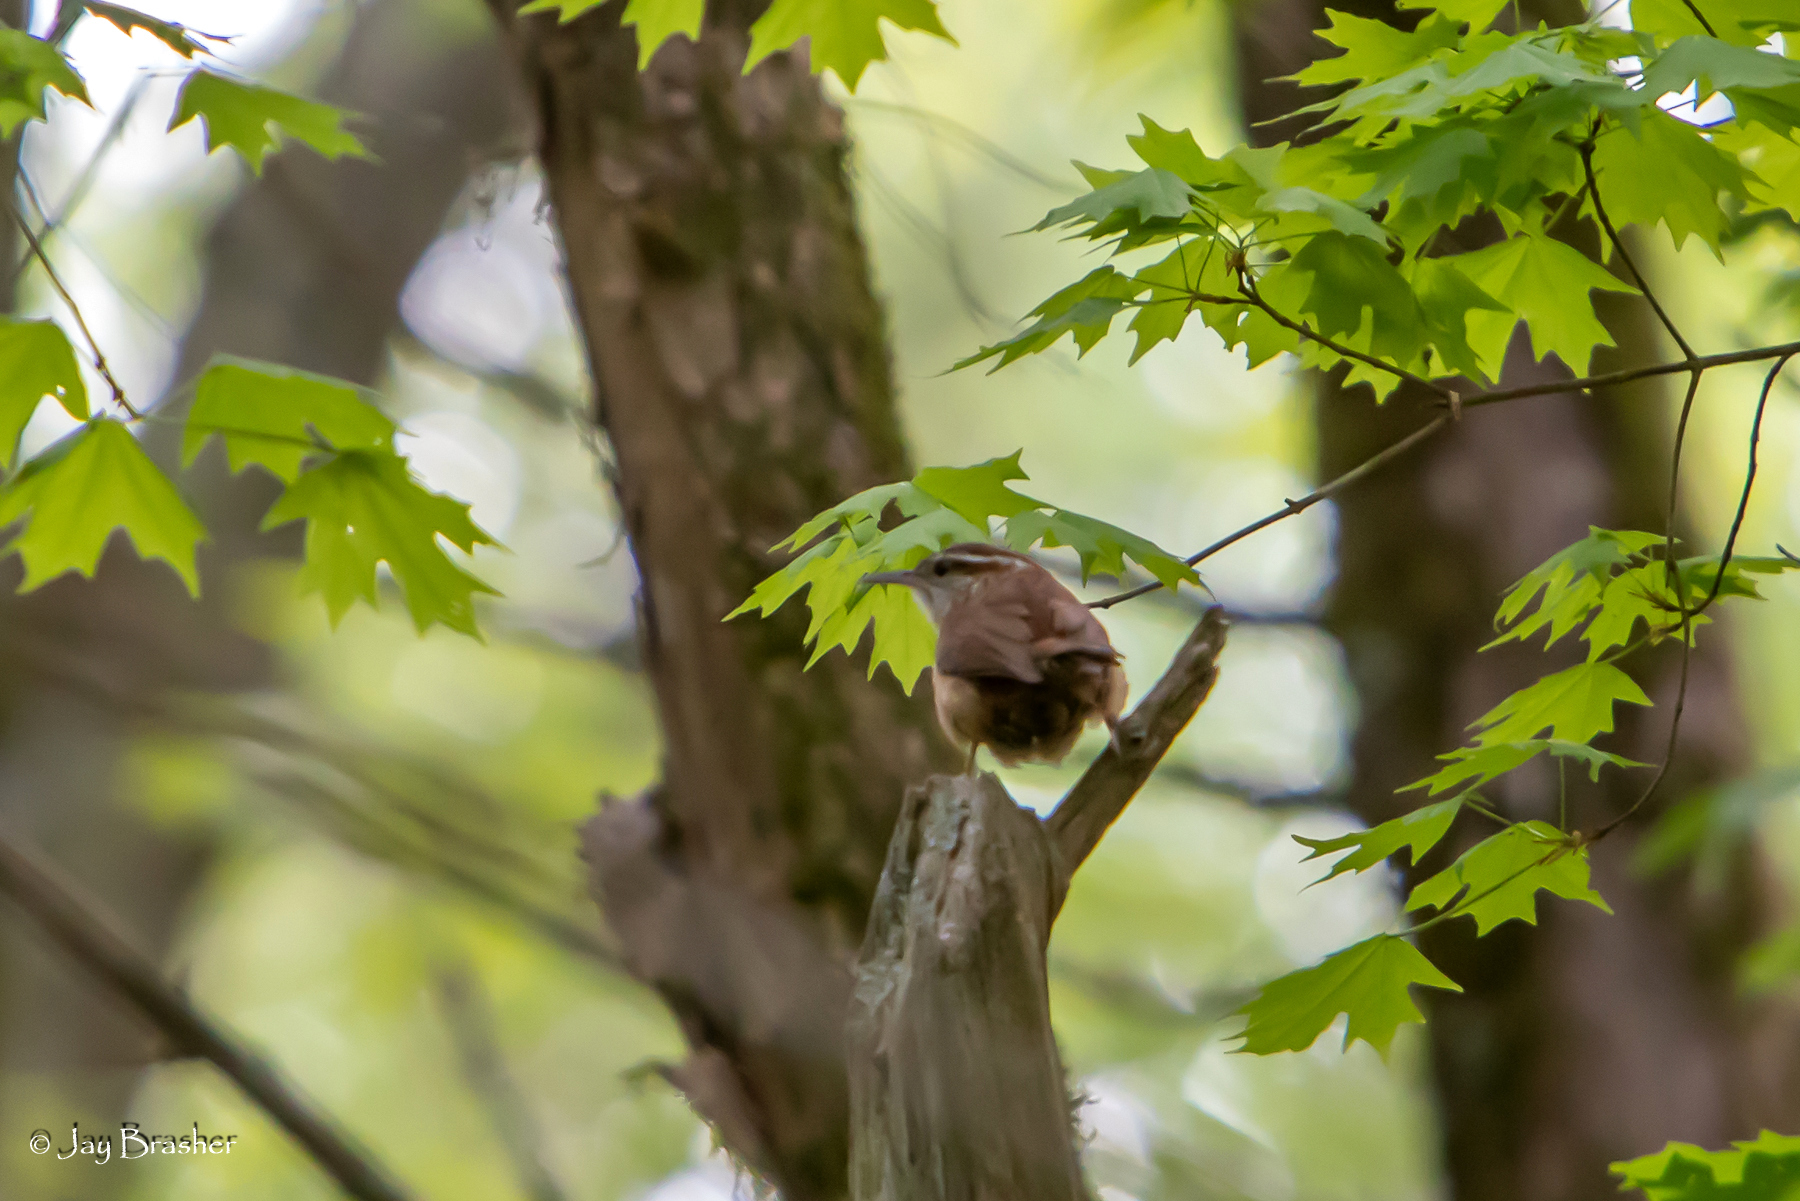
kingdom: Animalia
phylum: Chordata
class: Aves
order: Passeriformes
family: Troglodytidae
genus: Thryothorus
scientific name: Thryothorus ludovicianus
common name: Carolina wren
